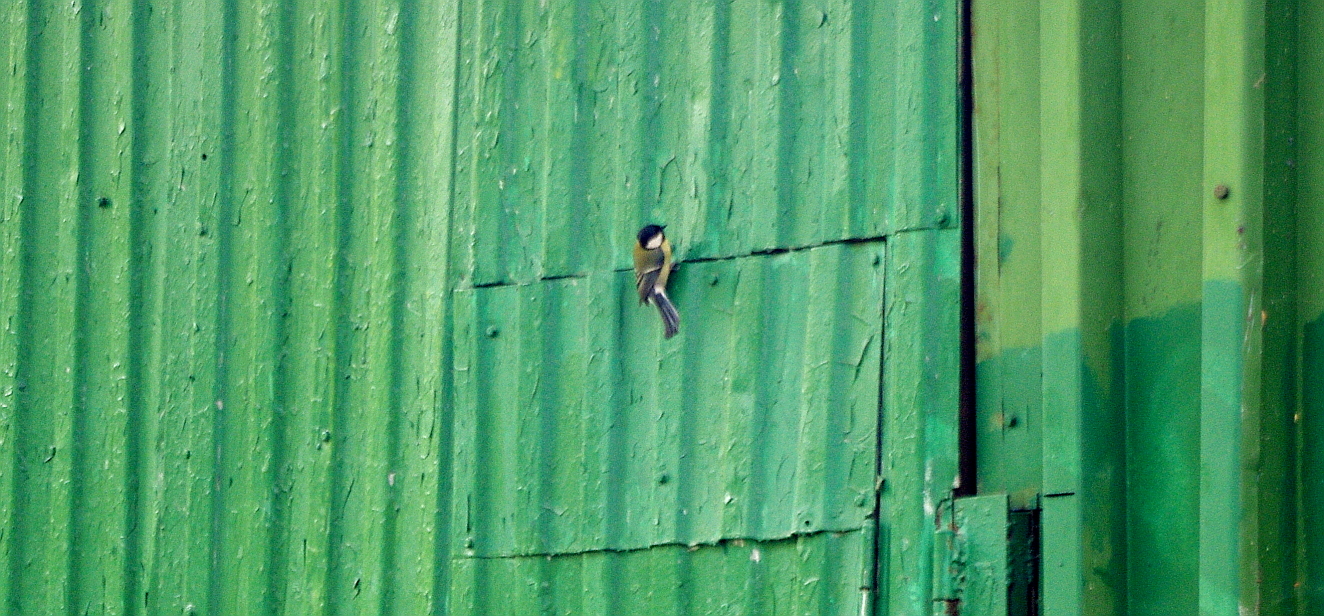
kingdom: Animalia
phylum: Chordata
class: Aves
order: Passeriformes
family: Paridae
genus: Parus
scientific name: Parus major
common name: Great tit
